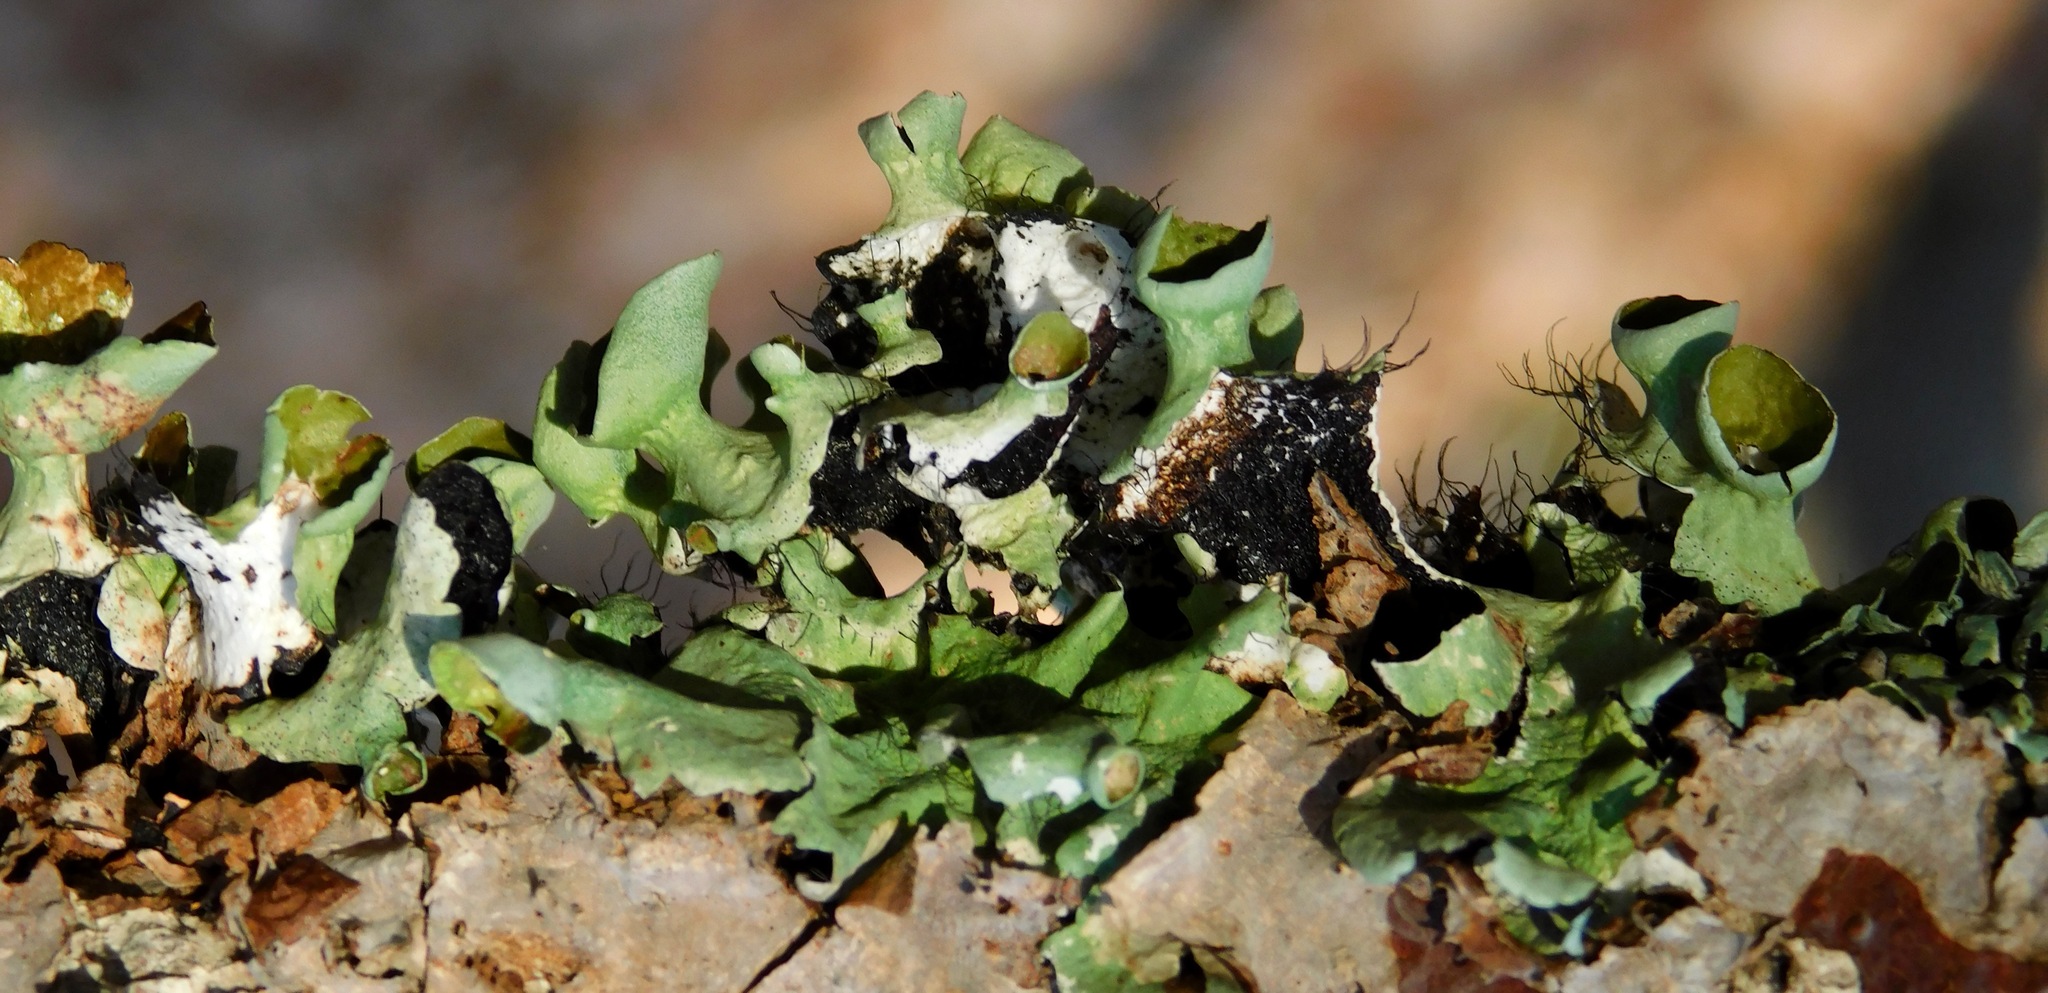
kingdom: Fungi
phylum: Ascomycota
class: Lecanoromycetes
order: Lecanorales
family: Parmeliaceae
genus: Parmotrema
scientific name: Parmotrema perforatum
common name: Perforated ruffle lichen
